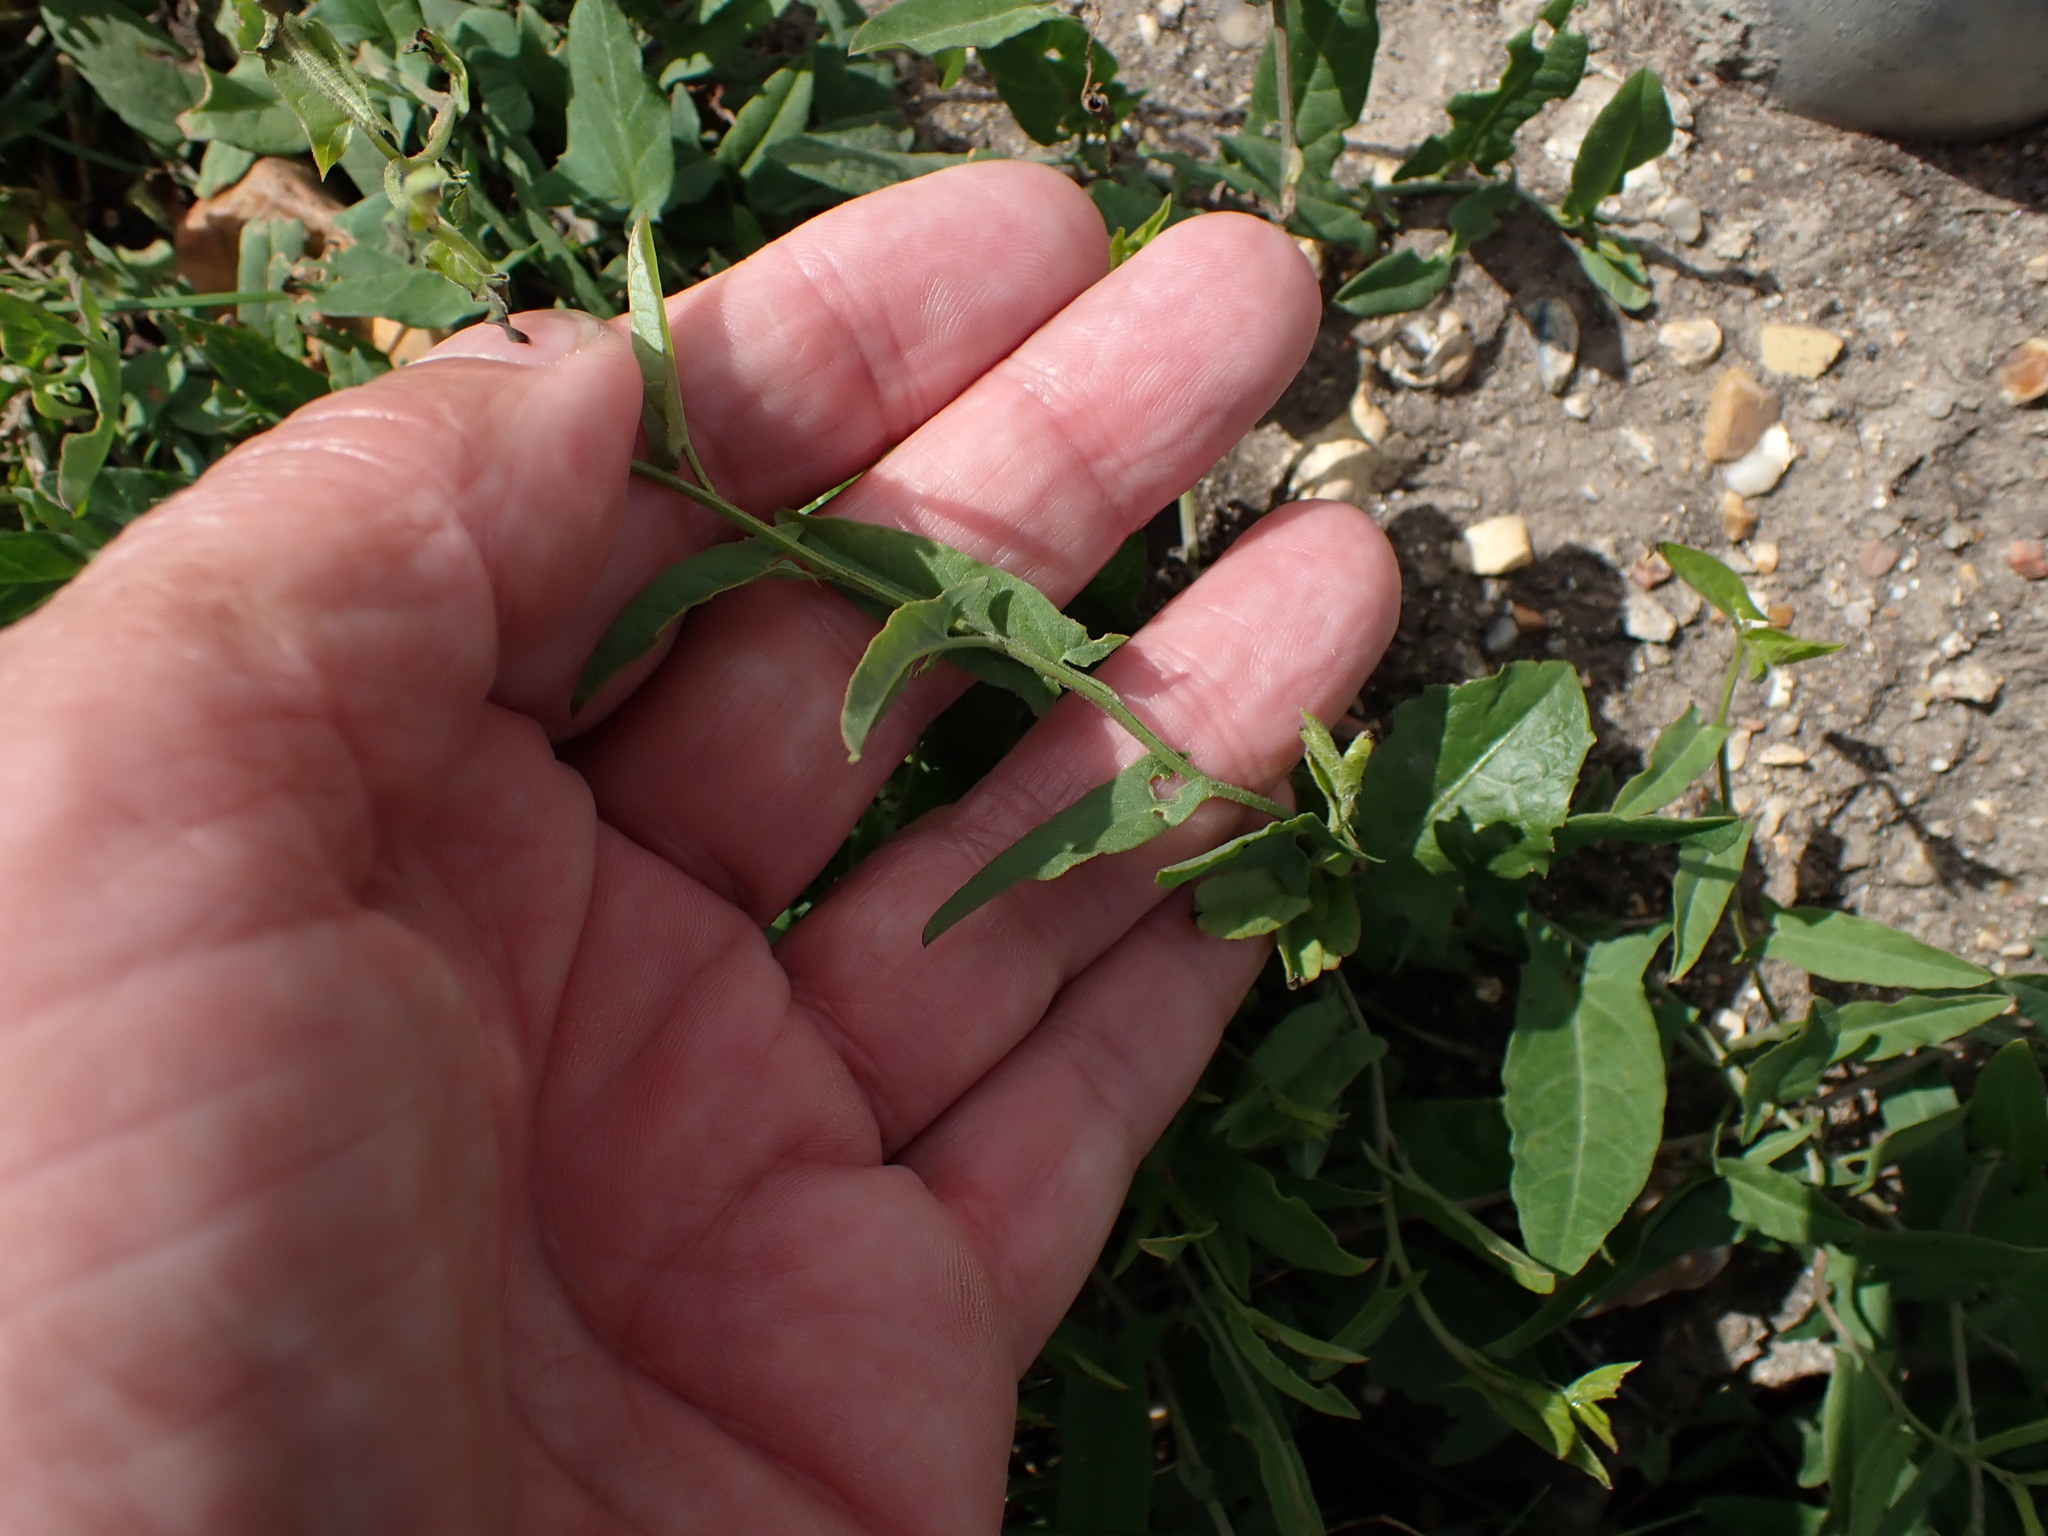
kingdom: Plantae
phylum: Tracheophyta
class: Magnoliopsida
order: Solanales
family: Convolvulaceae
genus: Convolvulus
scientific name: Convolvulus arvensis
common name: Field bindweed
